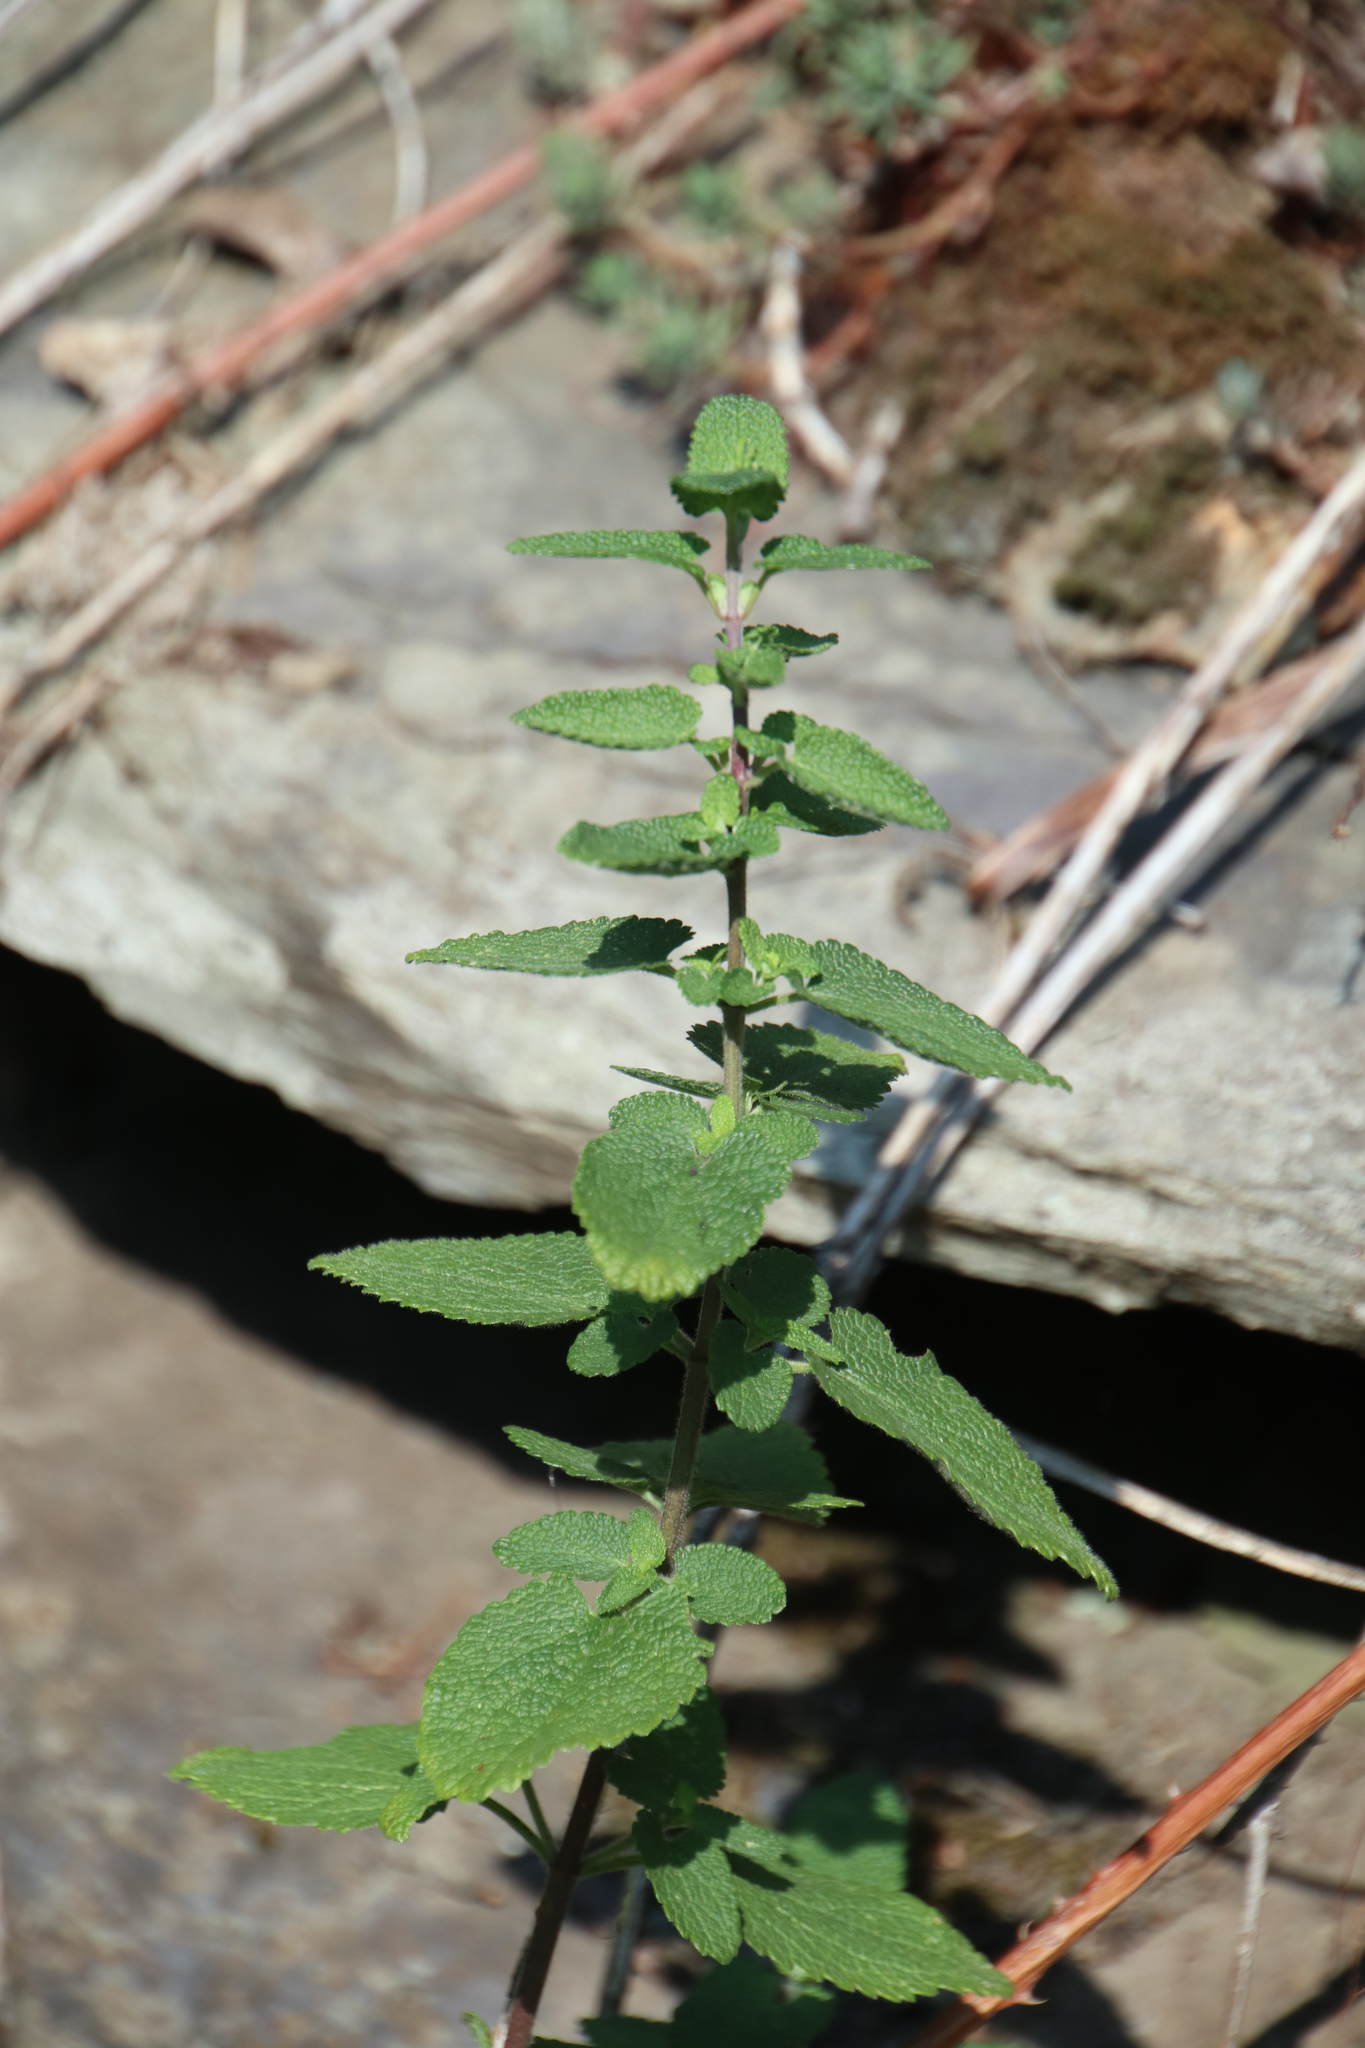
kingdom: Plantae
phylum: Tracheophyta
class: Magnoliopsida
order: Lamiales
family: Lamiaceae
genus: Teucrium
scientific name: Teucrium scorodonia
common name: Woodland germander
